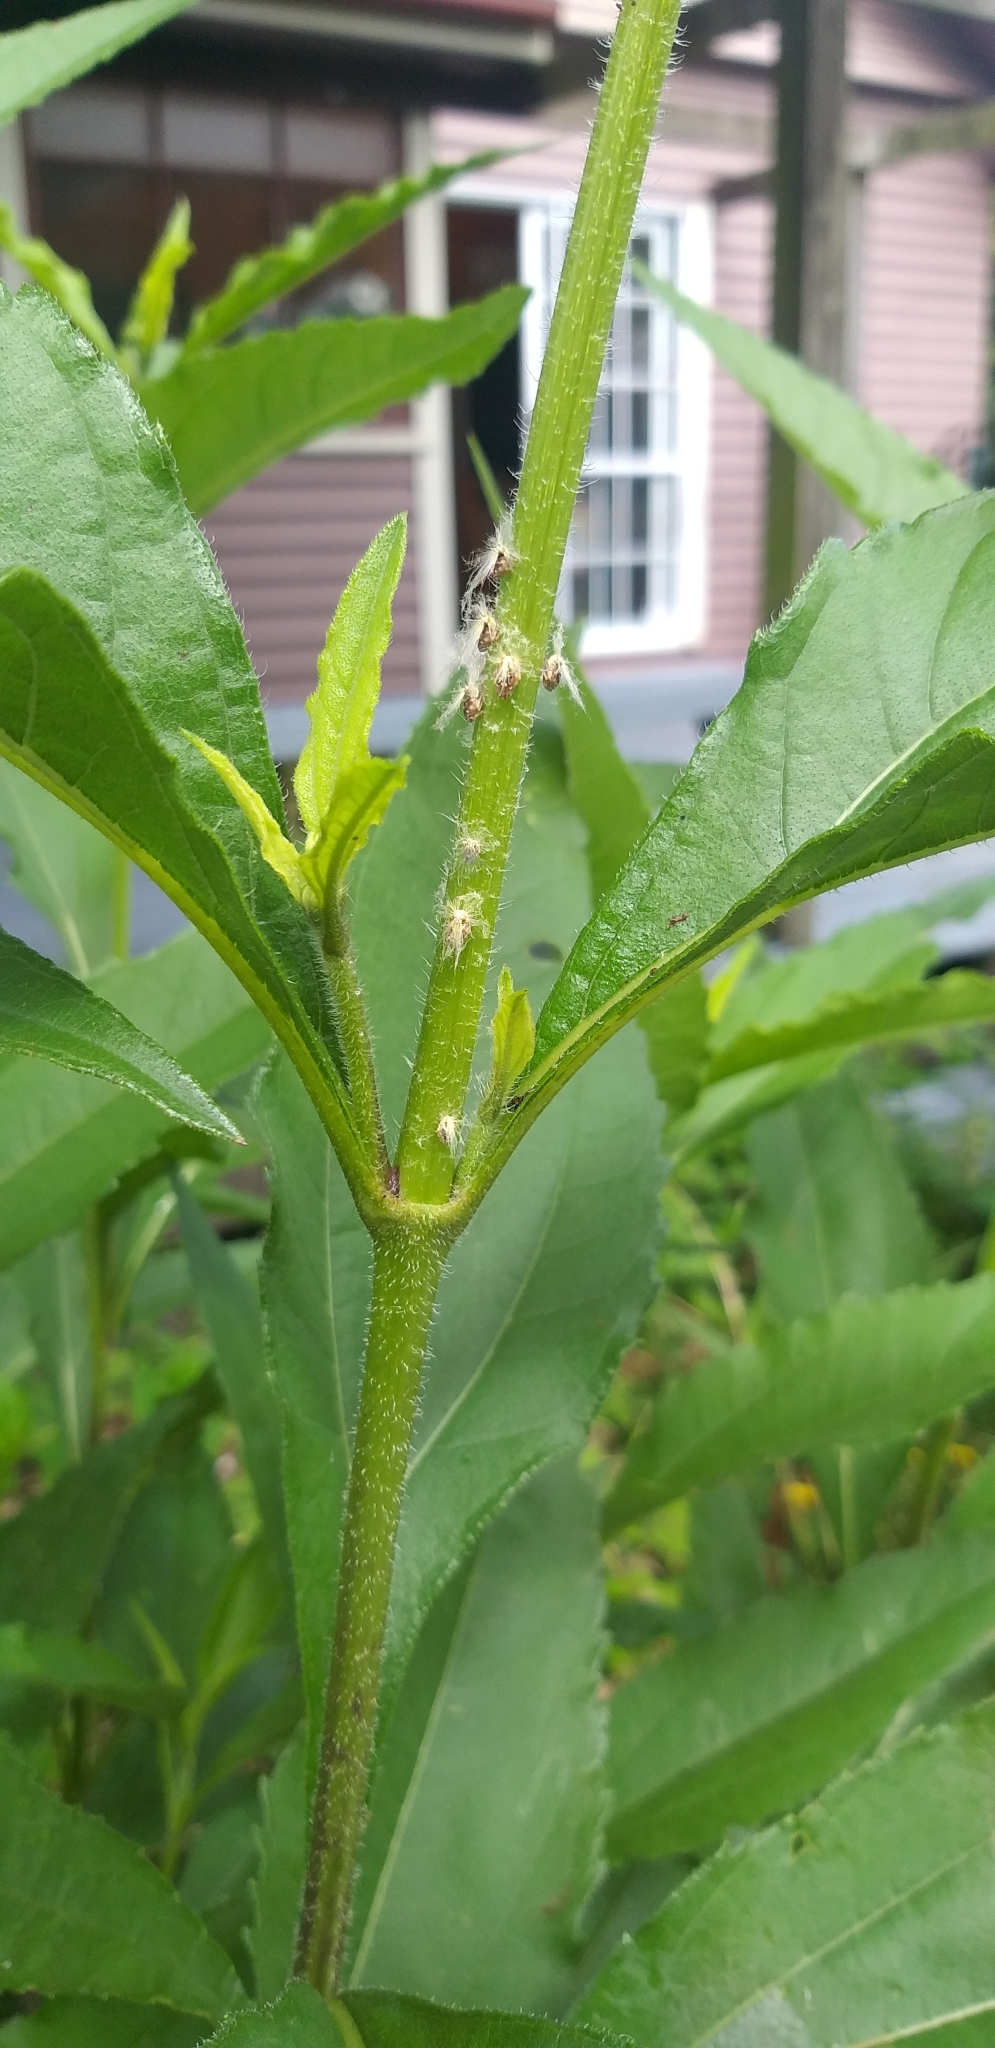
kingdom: Animalia
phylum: Arthropoda
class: Insecta
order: Hemiptera
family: Ricaniidae
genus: Scolypopa
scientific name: Scolypopa australis
